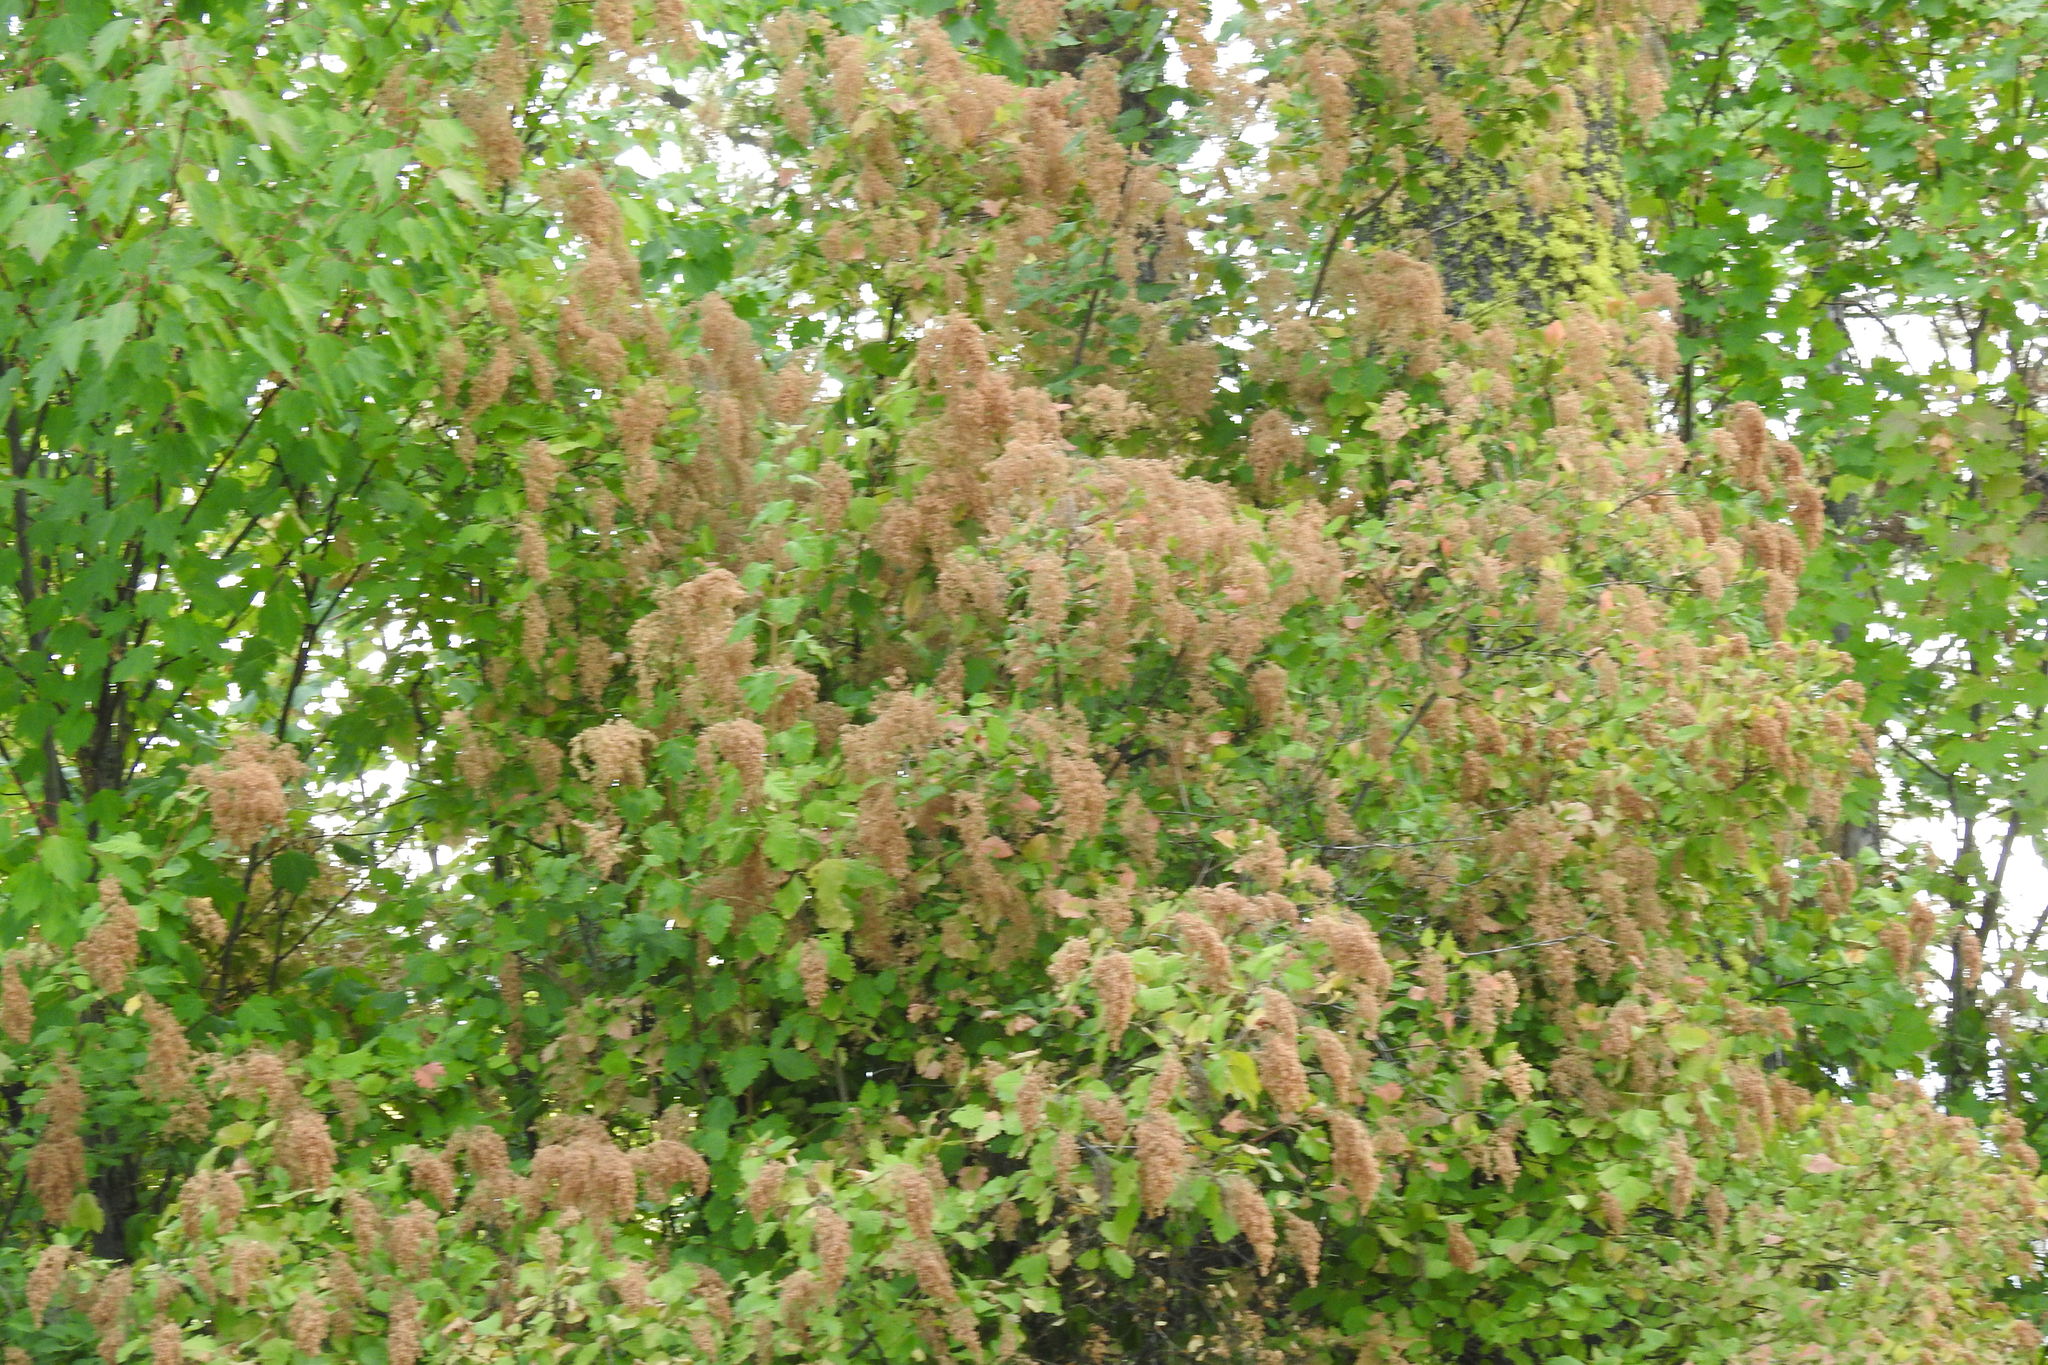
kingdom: Plantae
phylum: Tracheophyta
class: Magnoliopsida
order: Rosales
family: Rosaceae
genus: Holodiscus
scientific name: Holodiscus discolor
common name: Oceanspray
